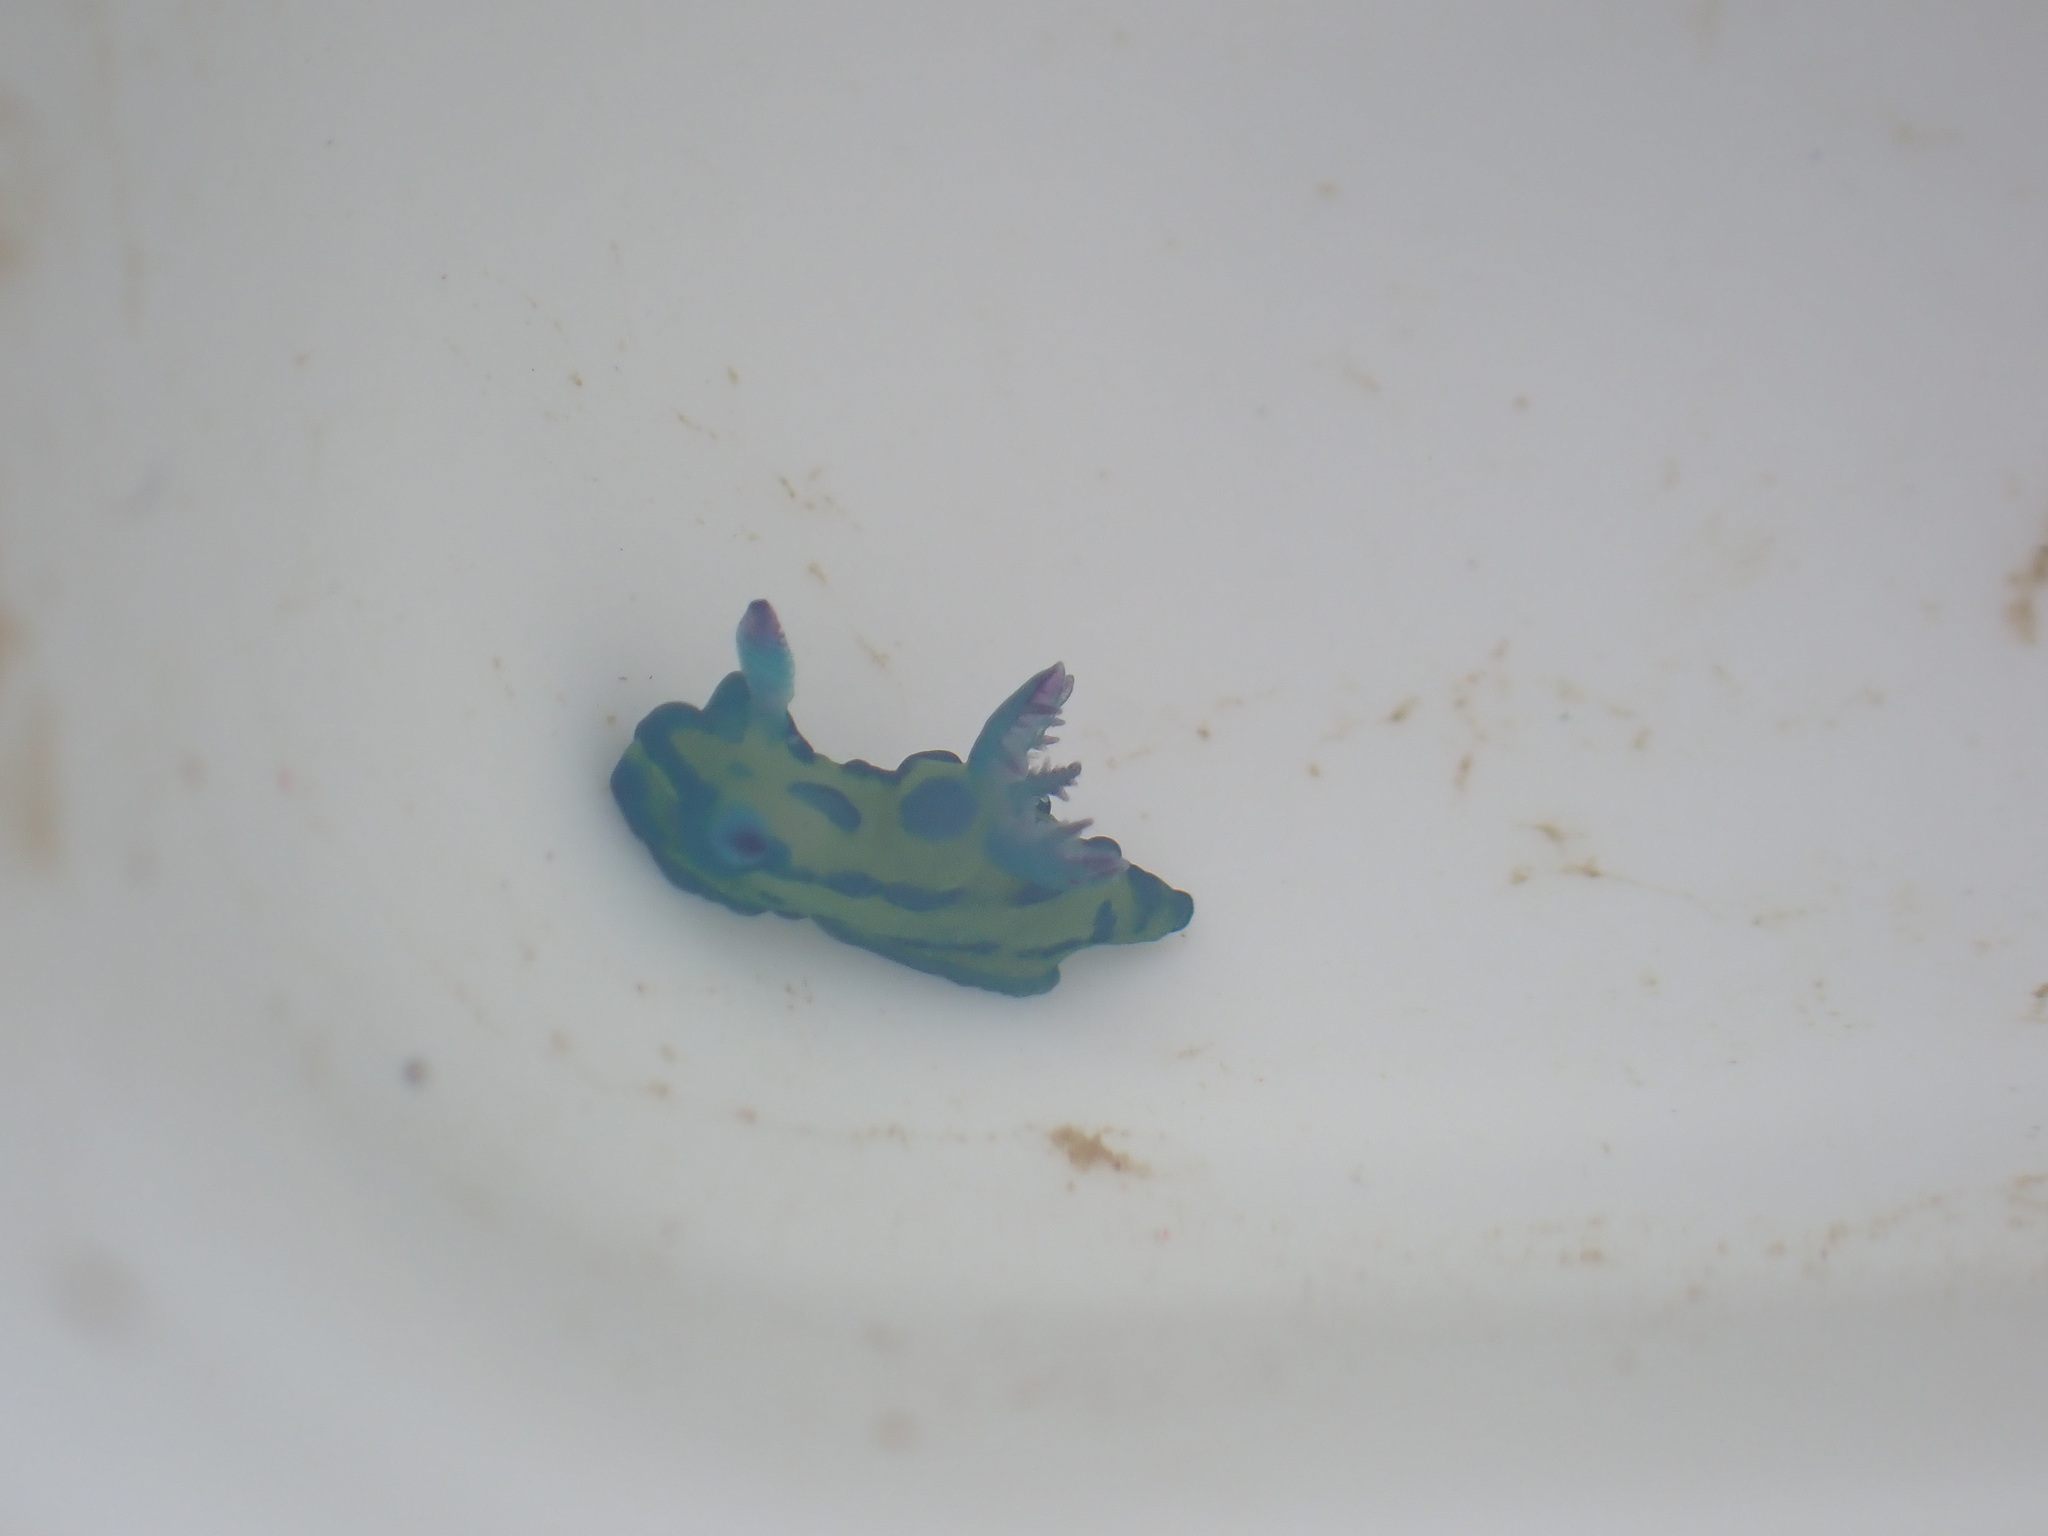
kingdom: Animalia
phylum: Mollusca
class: Gastropoda
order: Nudibranchia
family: Polyceridae
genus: Tambja
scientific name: Tambja verconis
